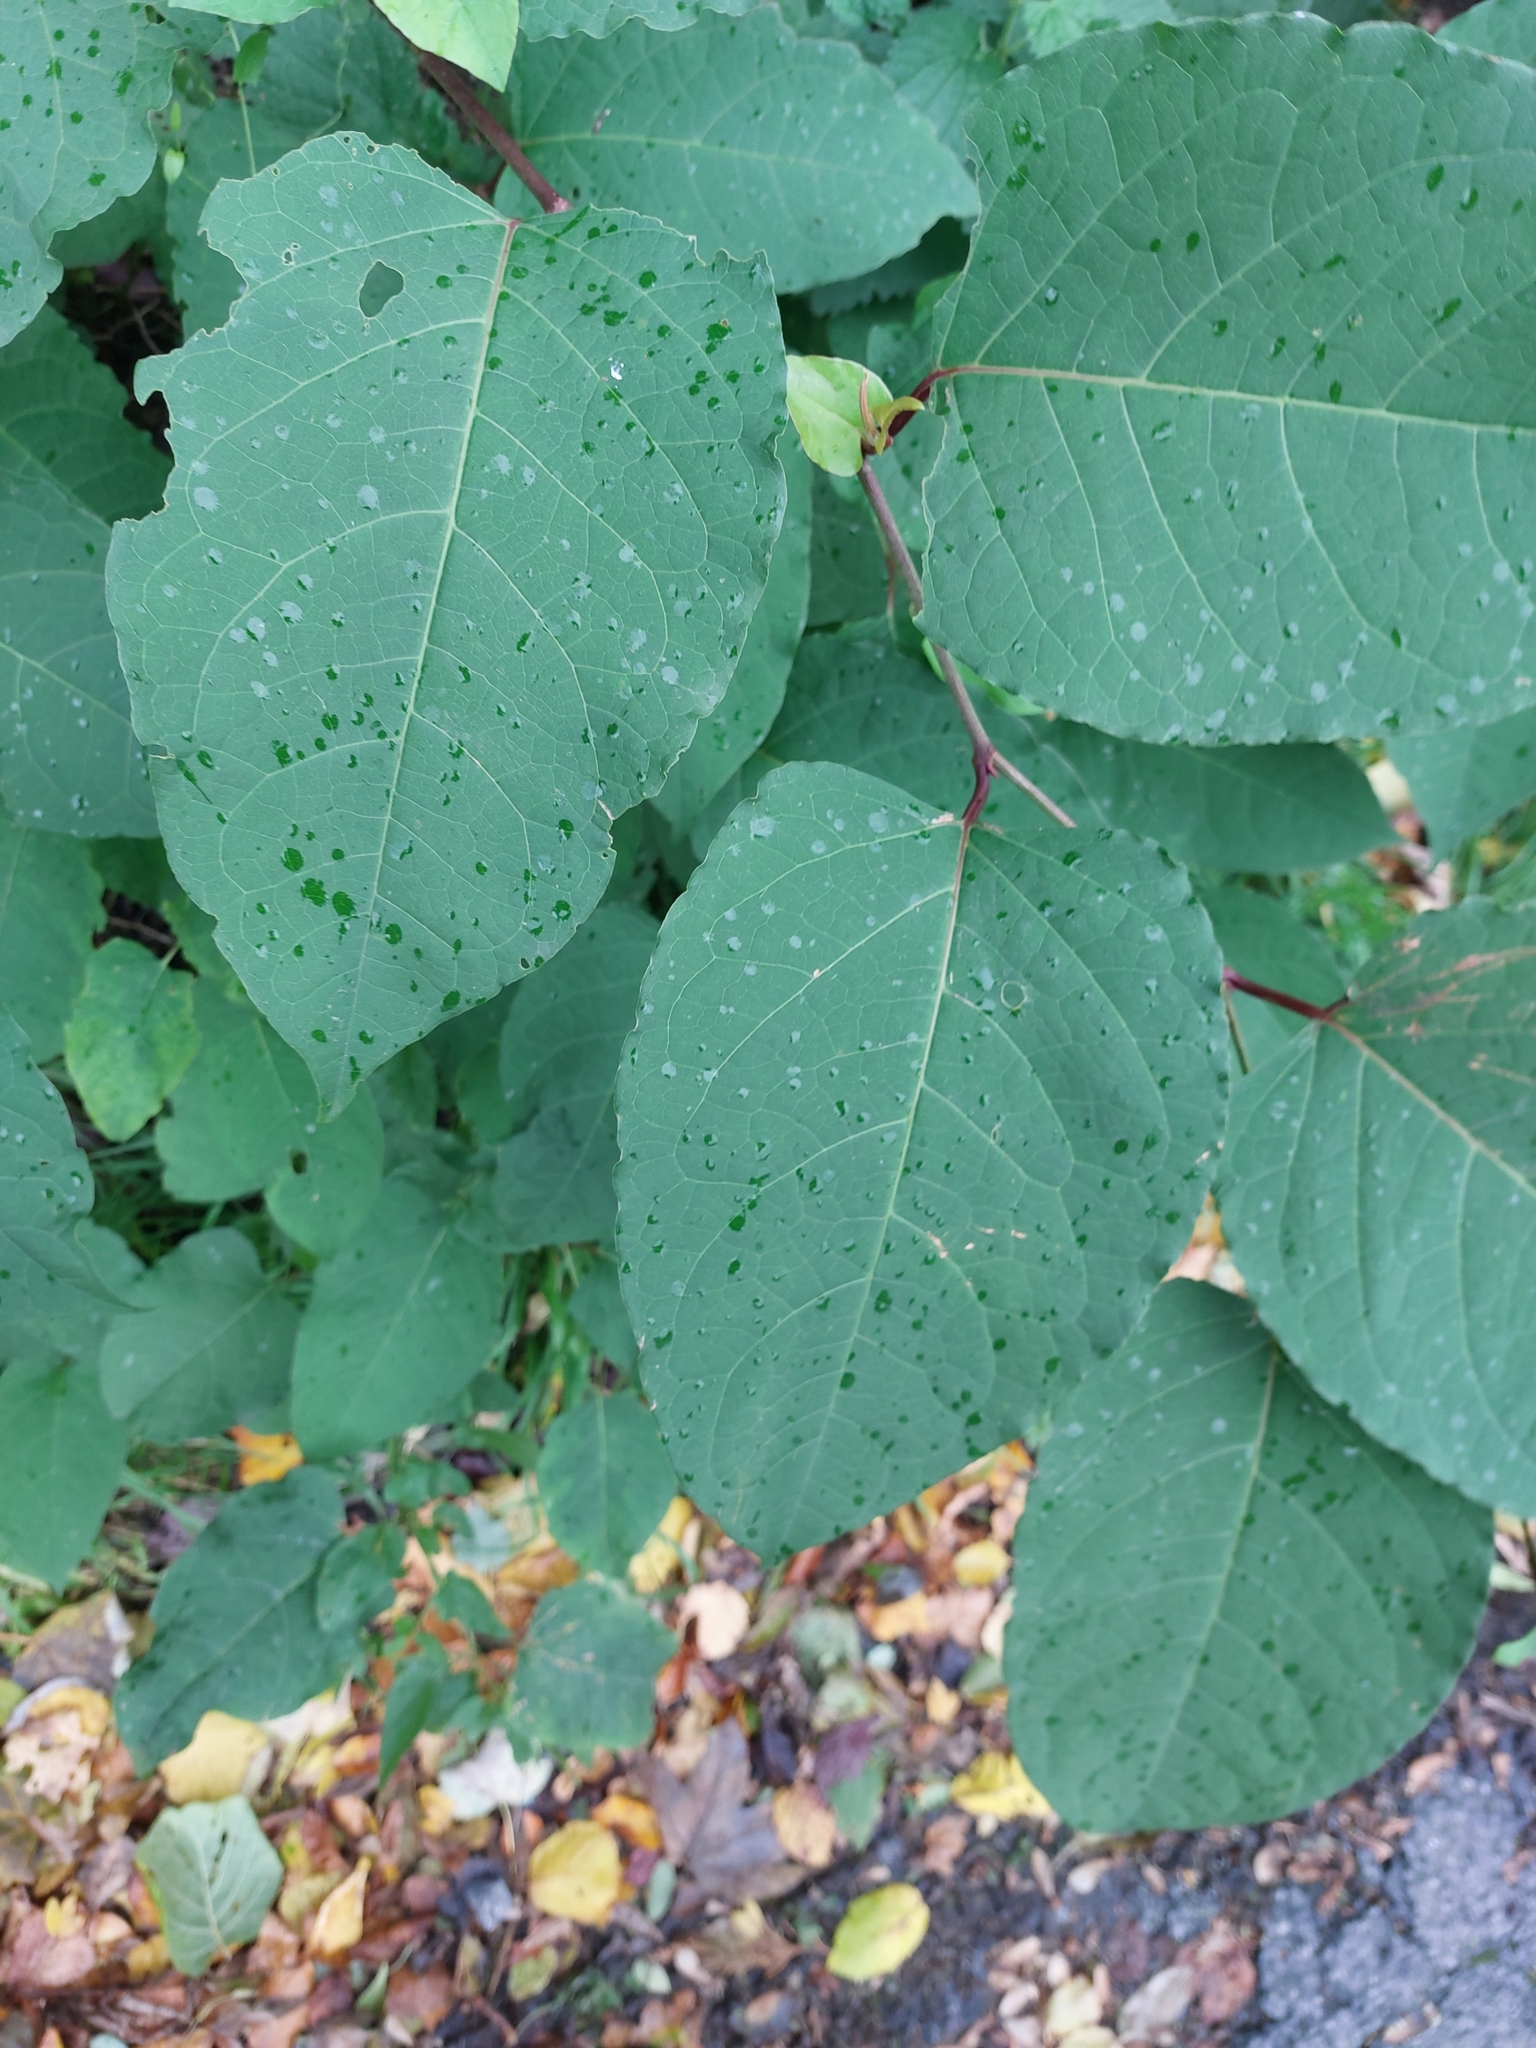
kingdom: Plantae
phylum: Tracheophyta
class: Magnoliopsida
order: Caryophyllales
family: Polygonaceae
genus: Reynoutria
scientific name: Reynoutria bohemica
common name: Bohemian knotweed
